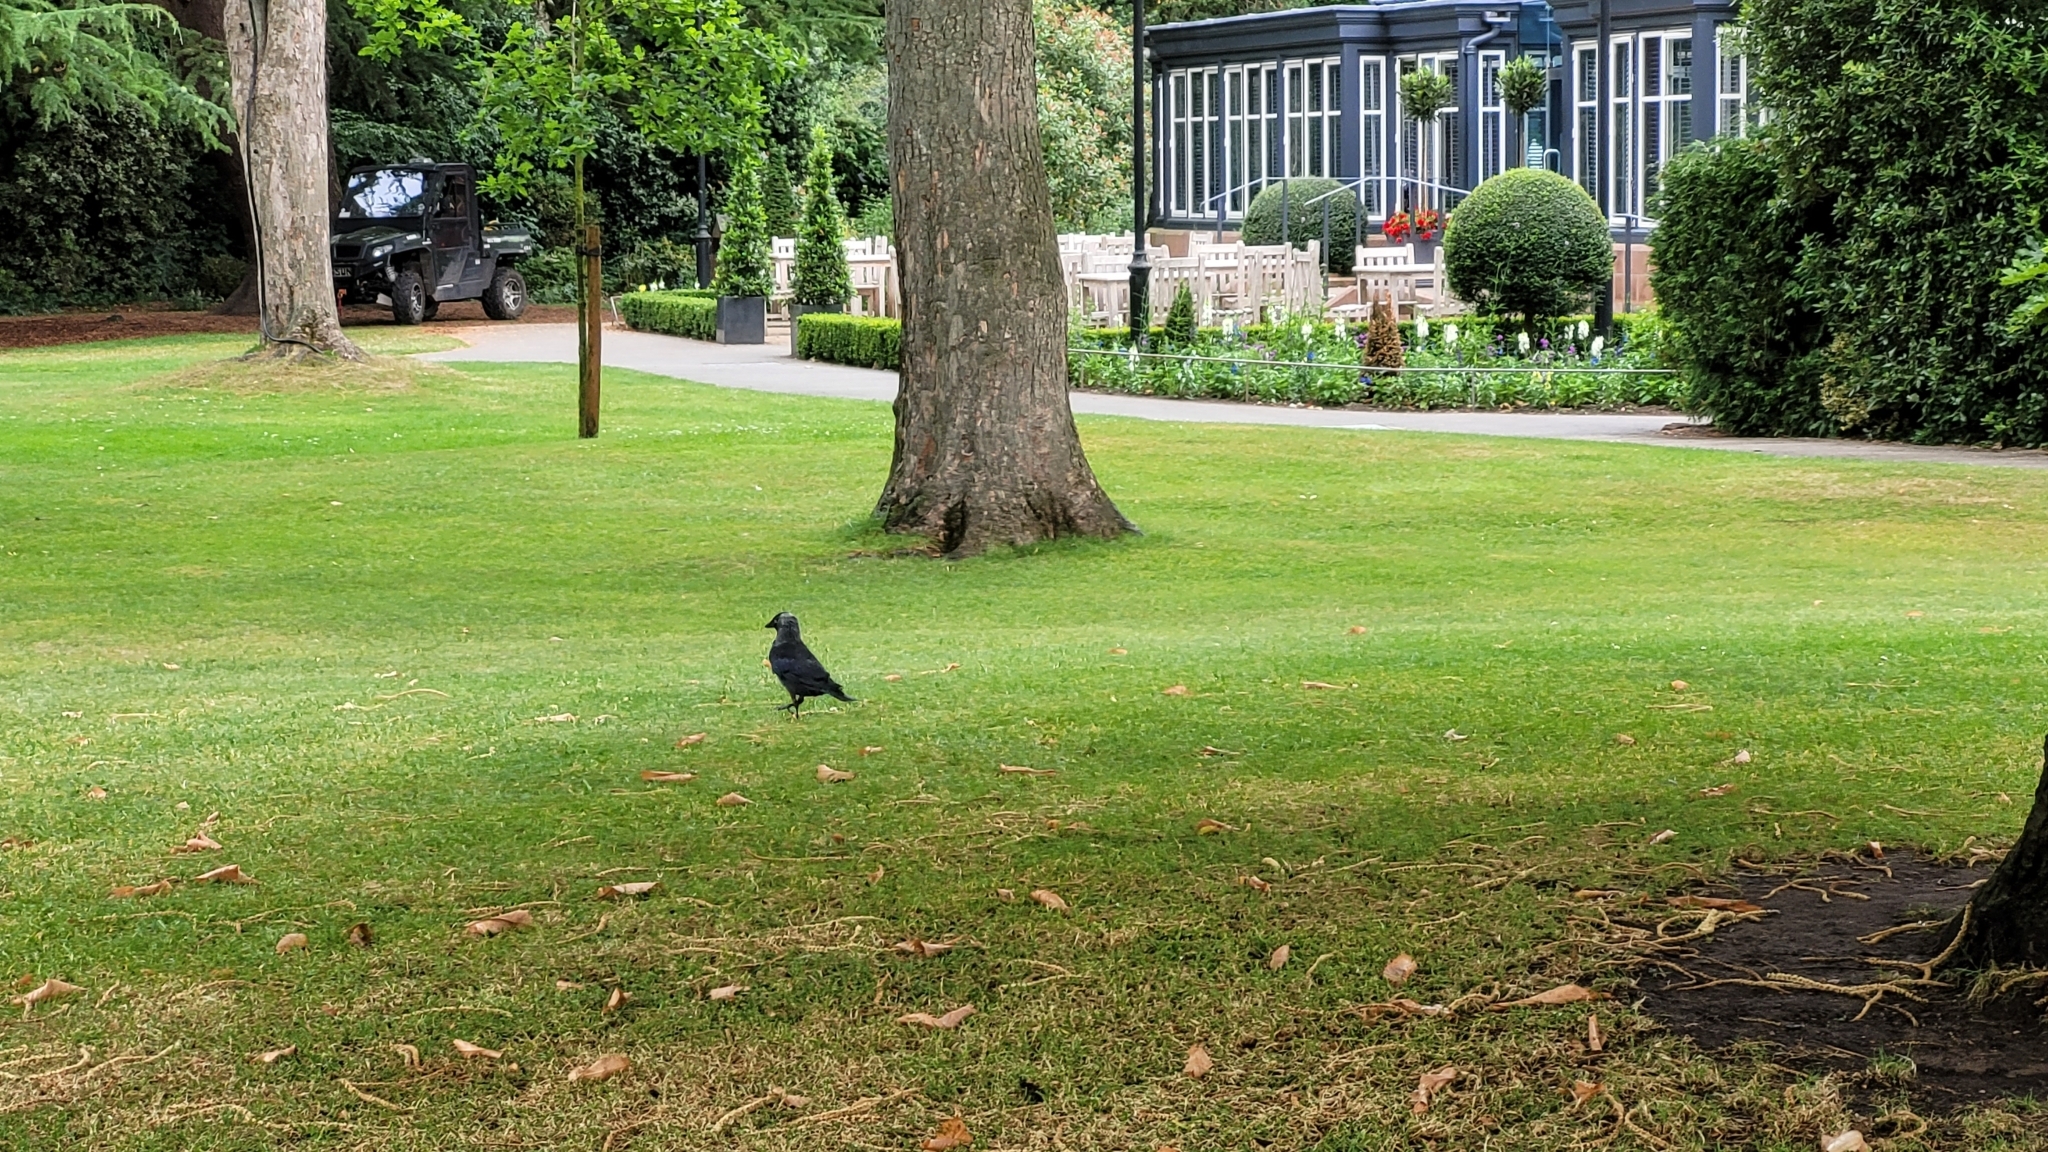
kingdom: Animalia
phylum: Chordata
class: Aves
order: Passeriformes
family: Corvidae
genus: Coloeus
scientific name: Coloeus monedula
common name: Western jackdaw
